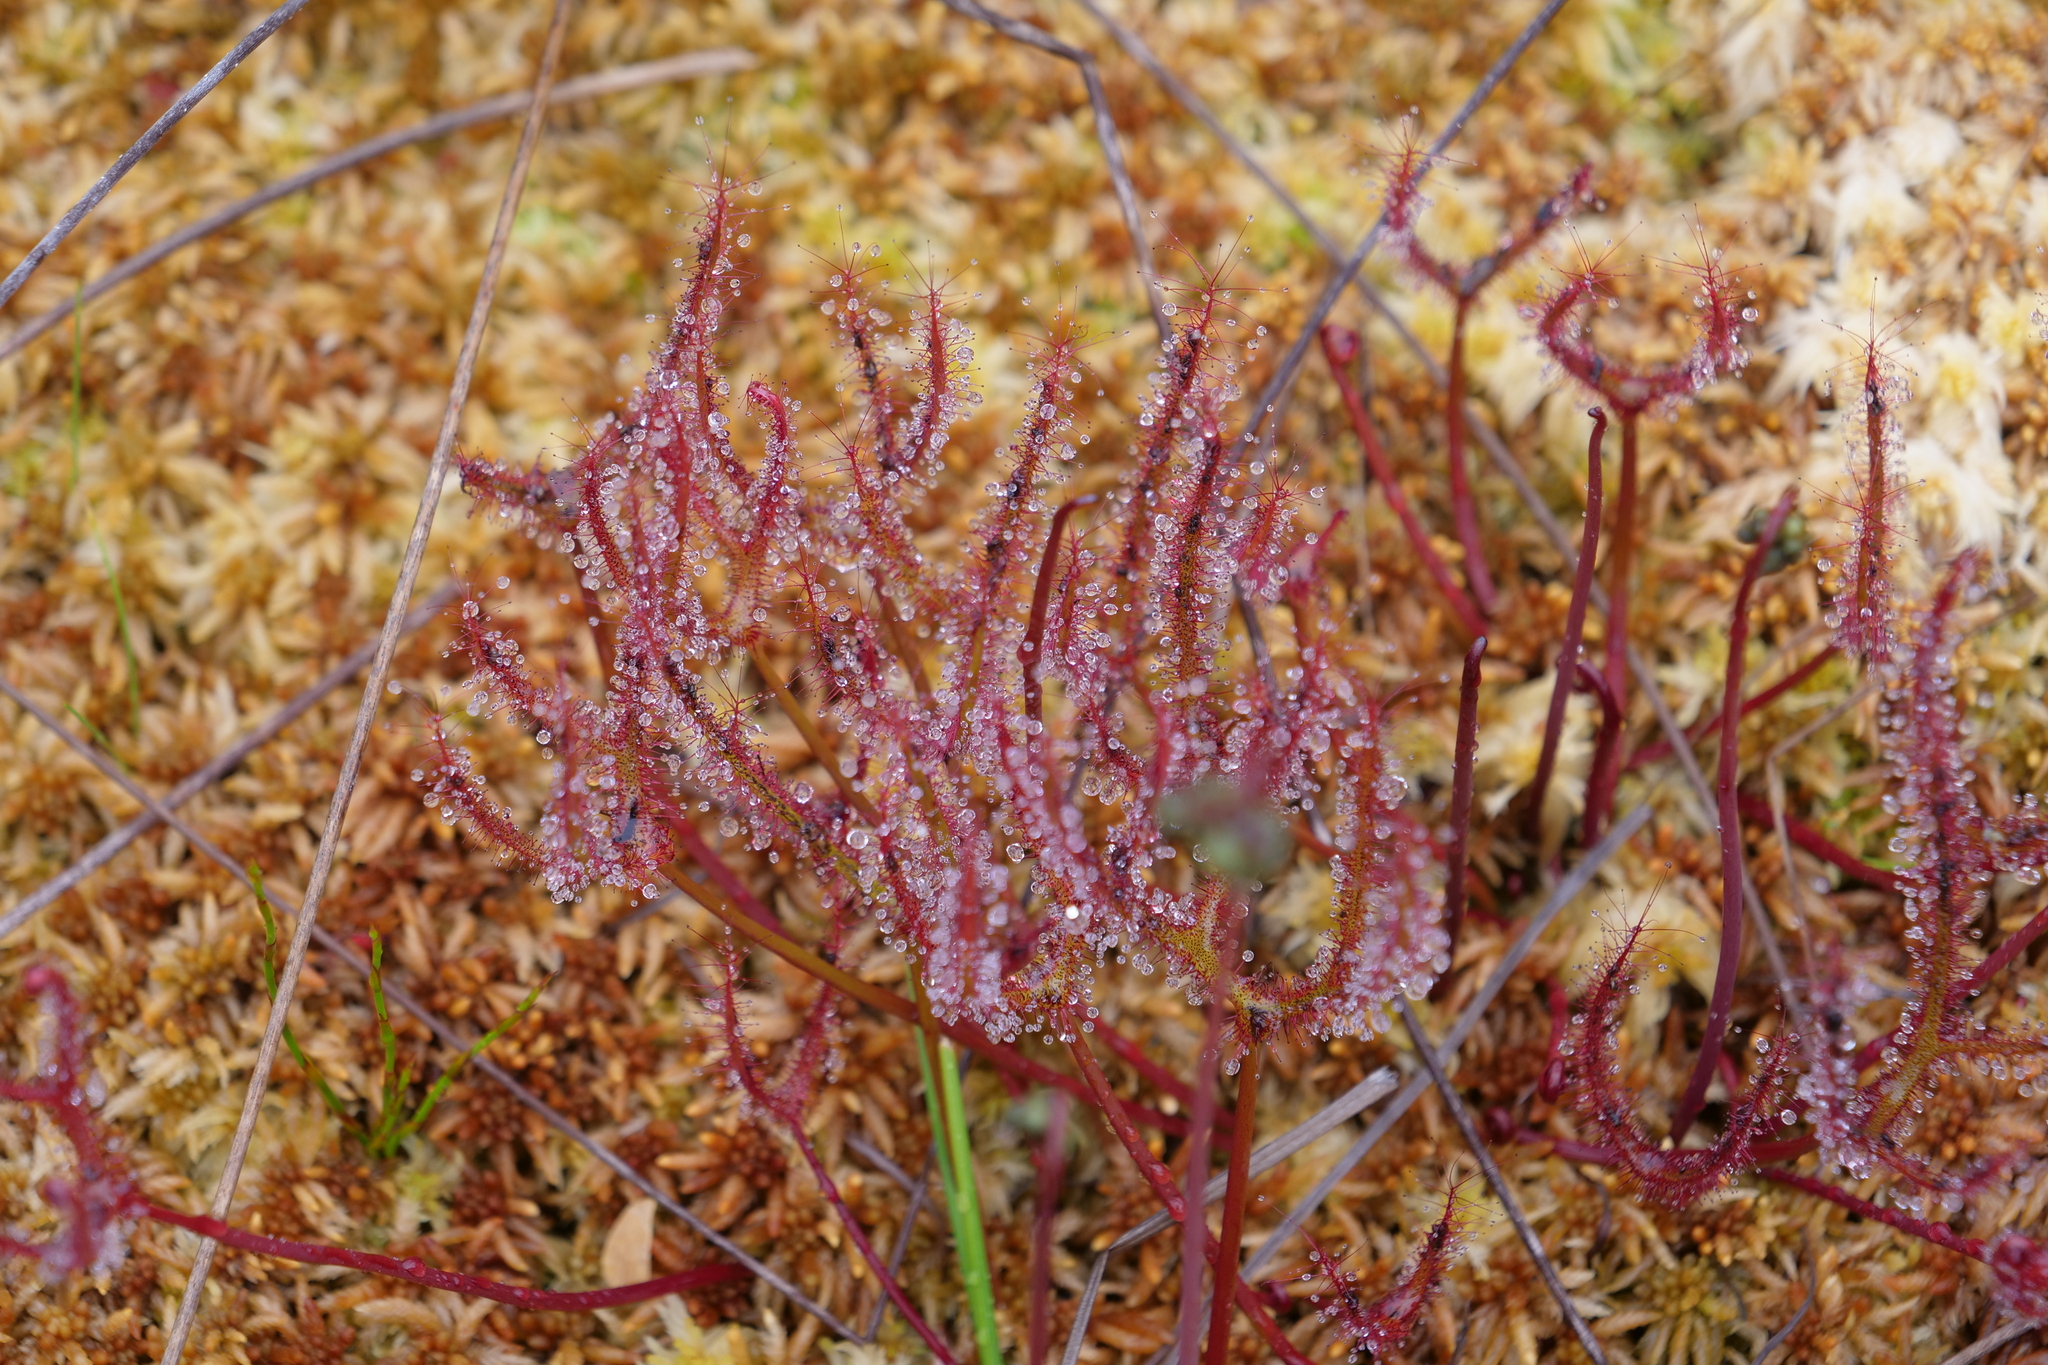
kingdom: Plantae
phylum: Tracheophyta
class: Magnoliopsida
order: Caryophyllales
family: Droseraceae
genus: Drosera
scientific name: Drosera binata
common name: Forked sundew
